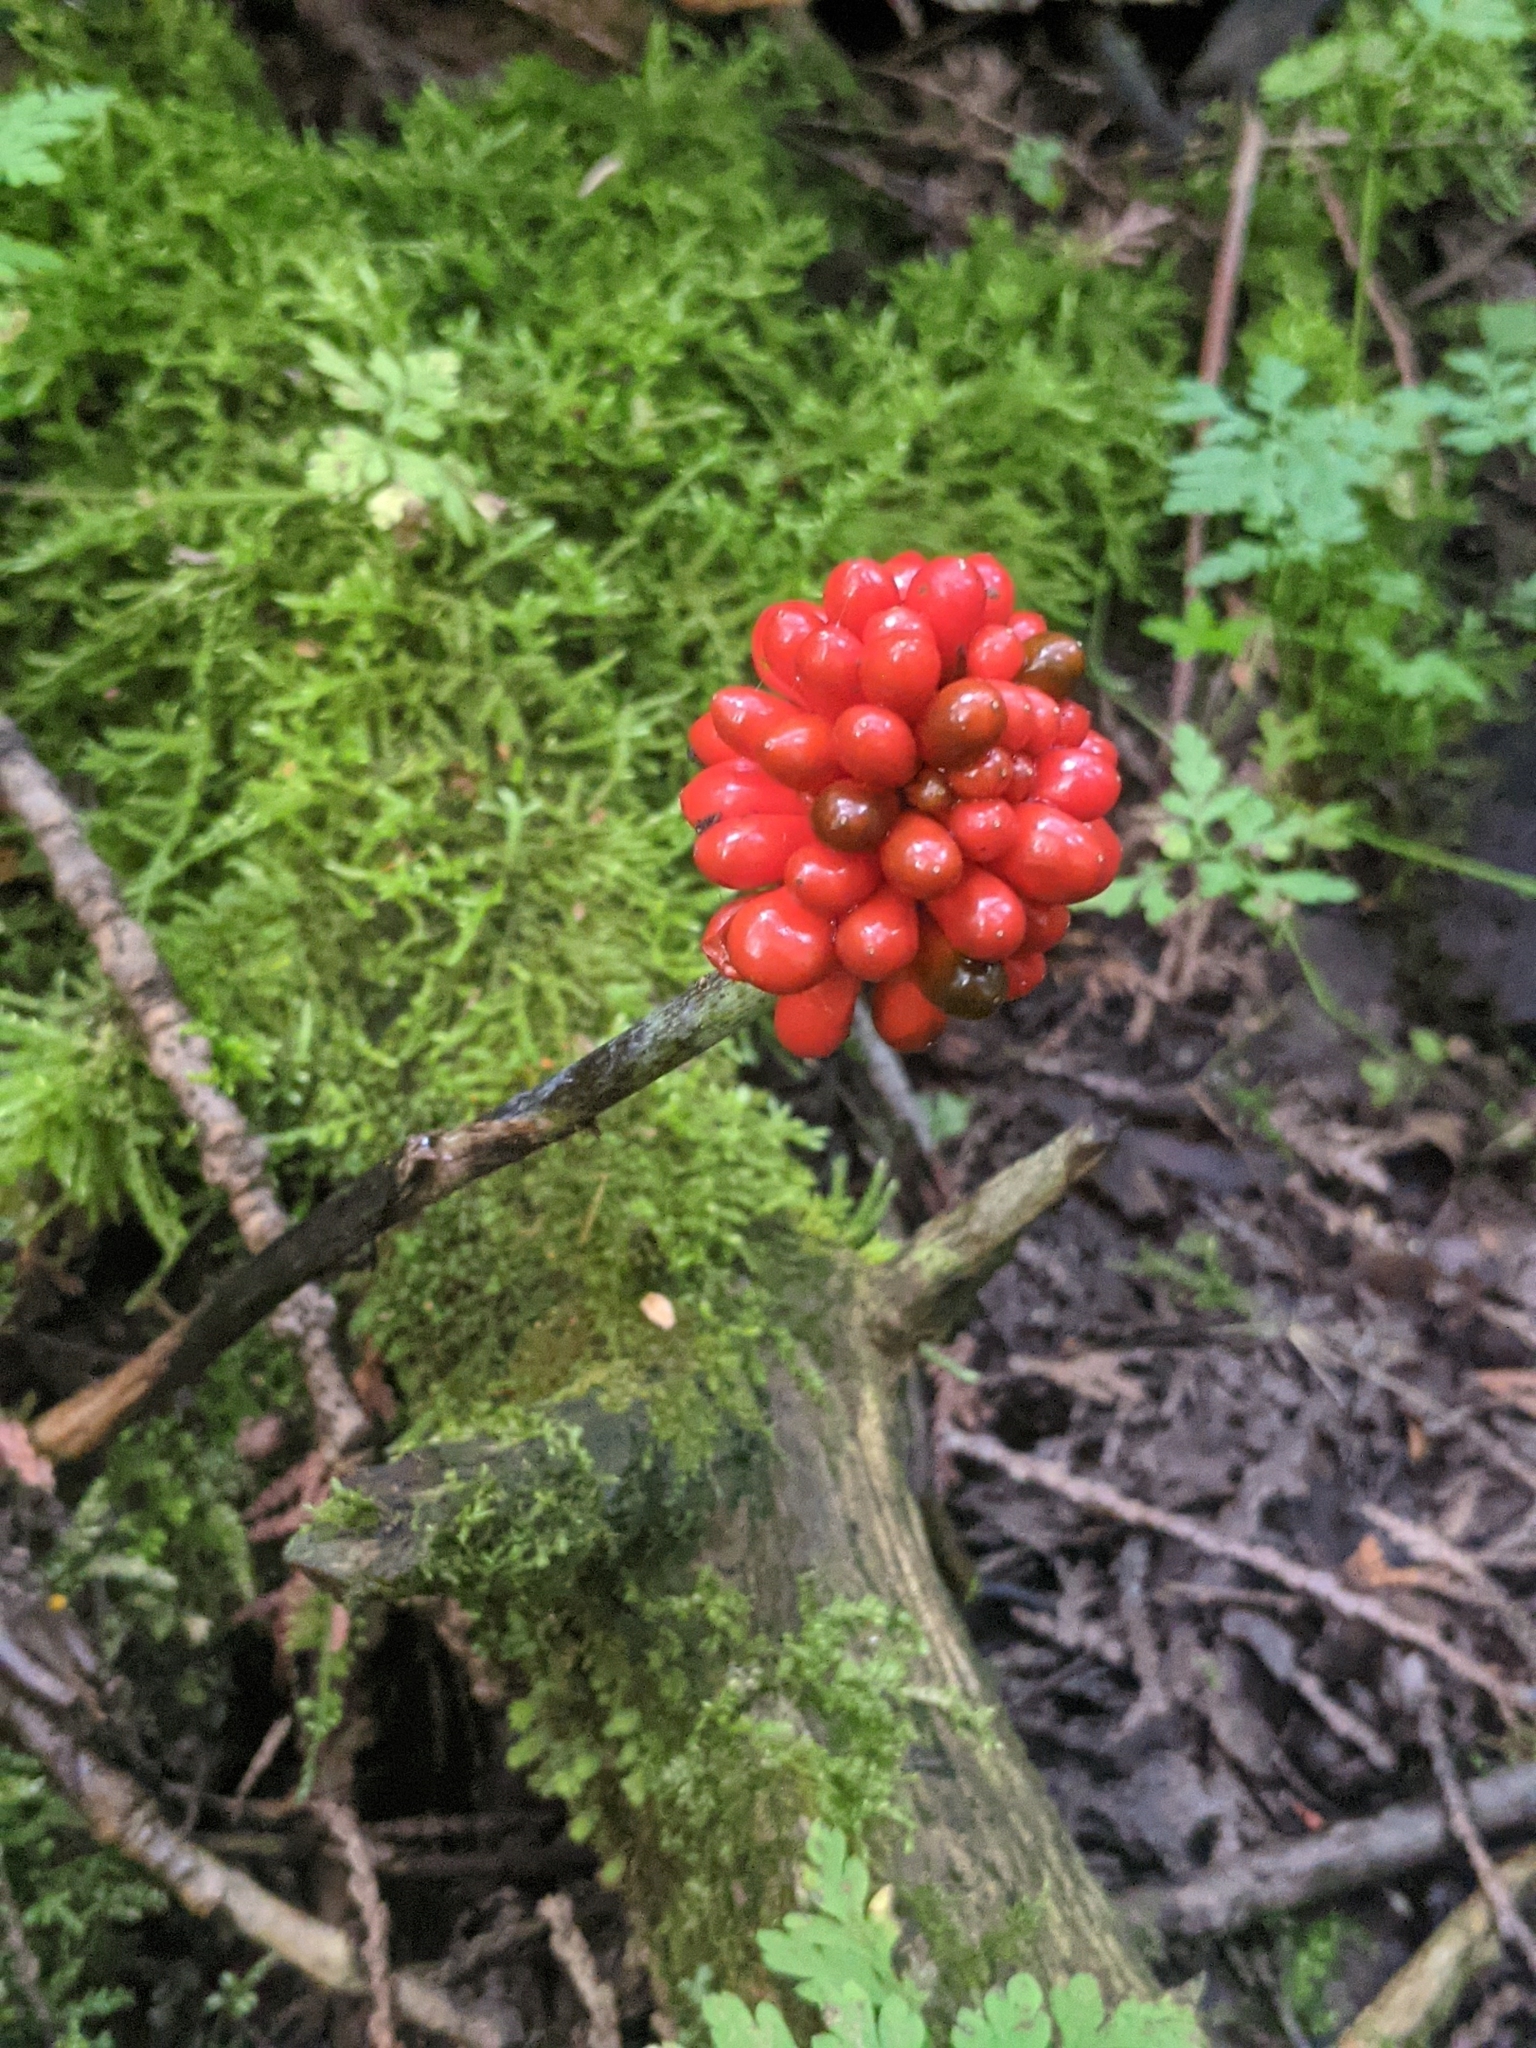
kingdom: Plantae
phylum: Tracheophyta
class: Liliopsida
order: Alismatales
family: Araceae
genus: Arisaema
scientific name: Arisaema triphyllum
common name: Jack-in-the-pulpit
